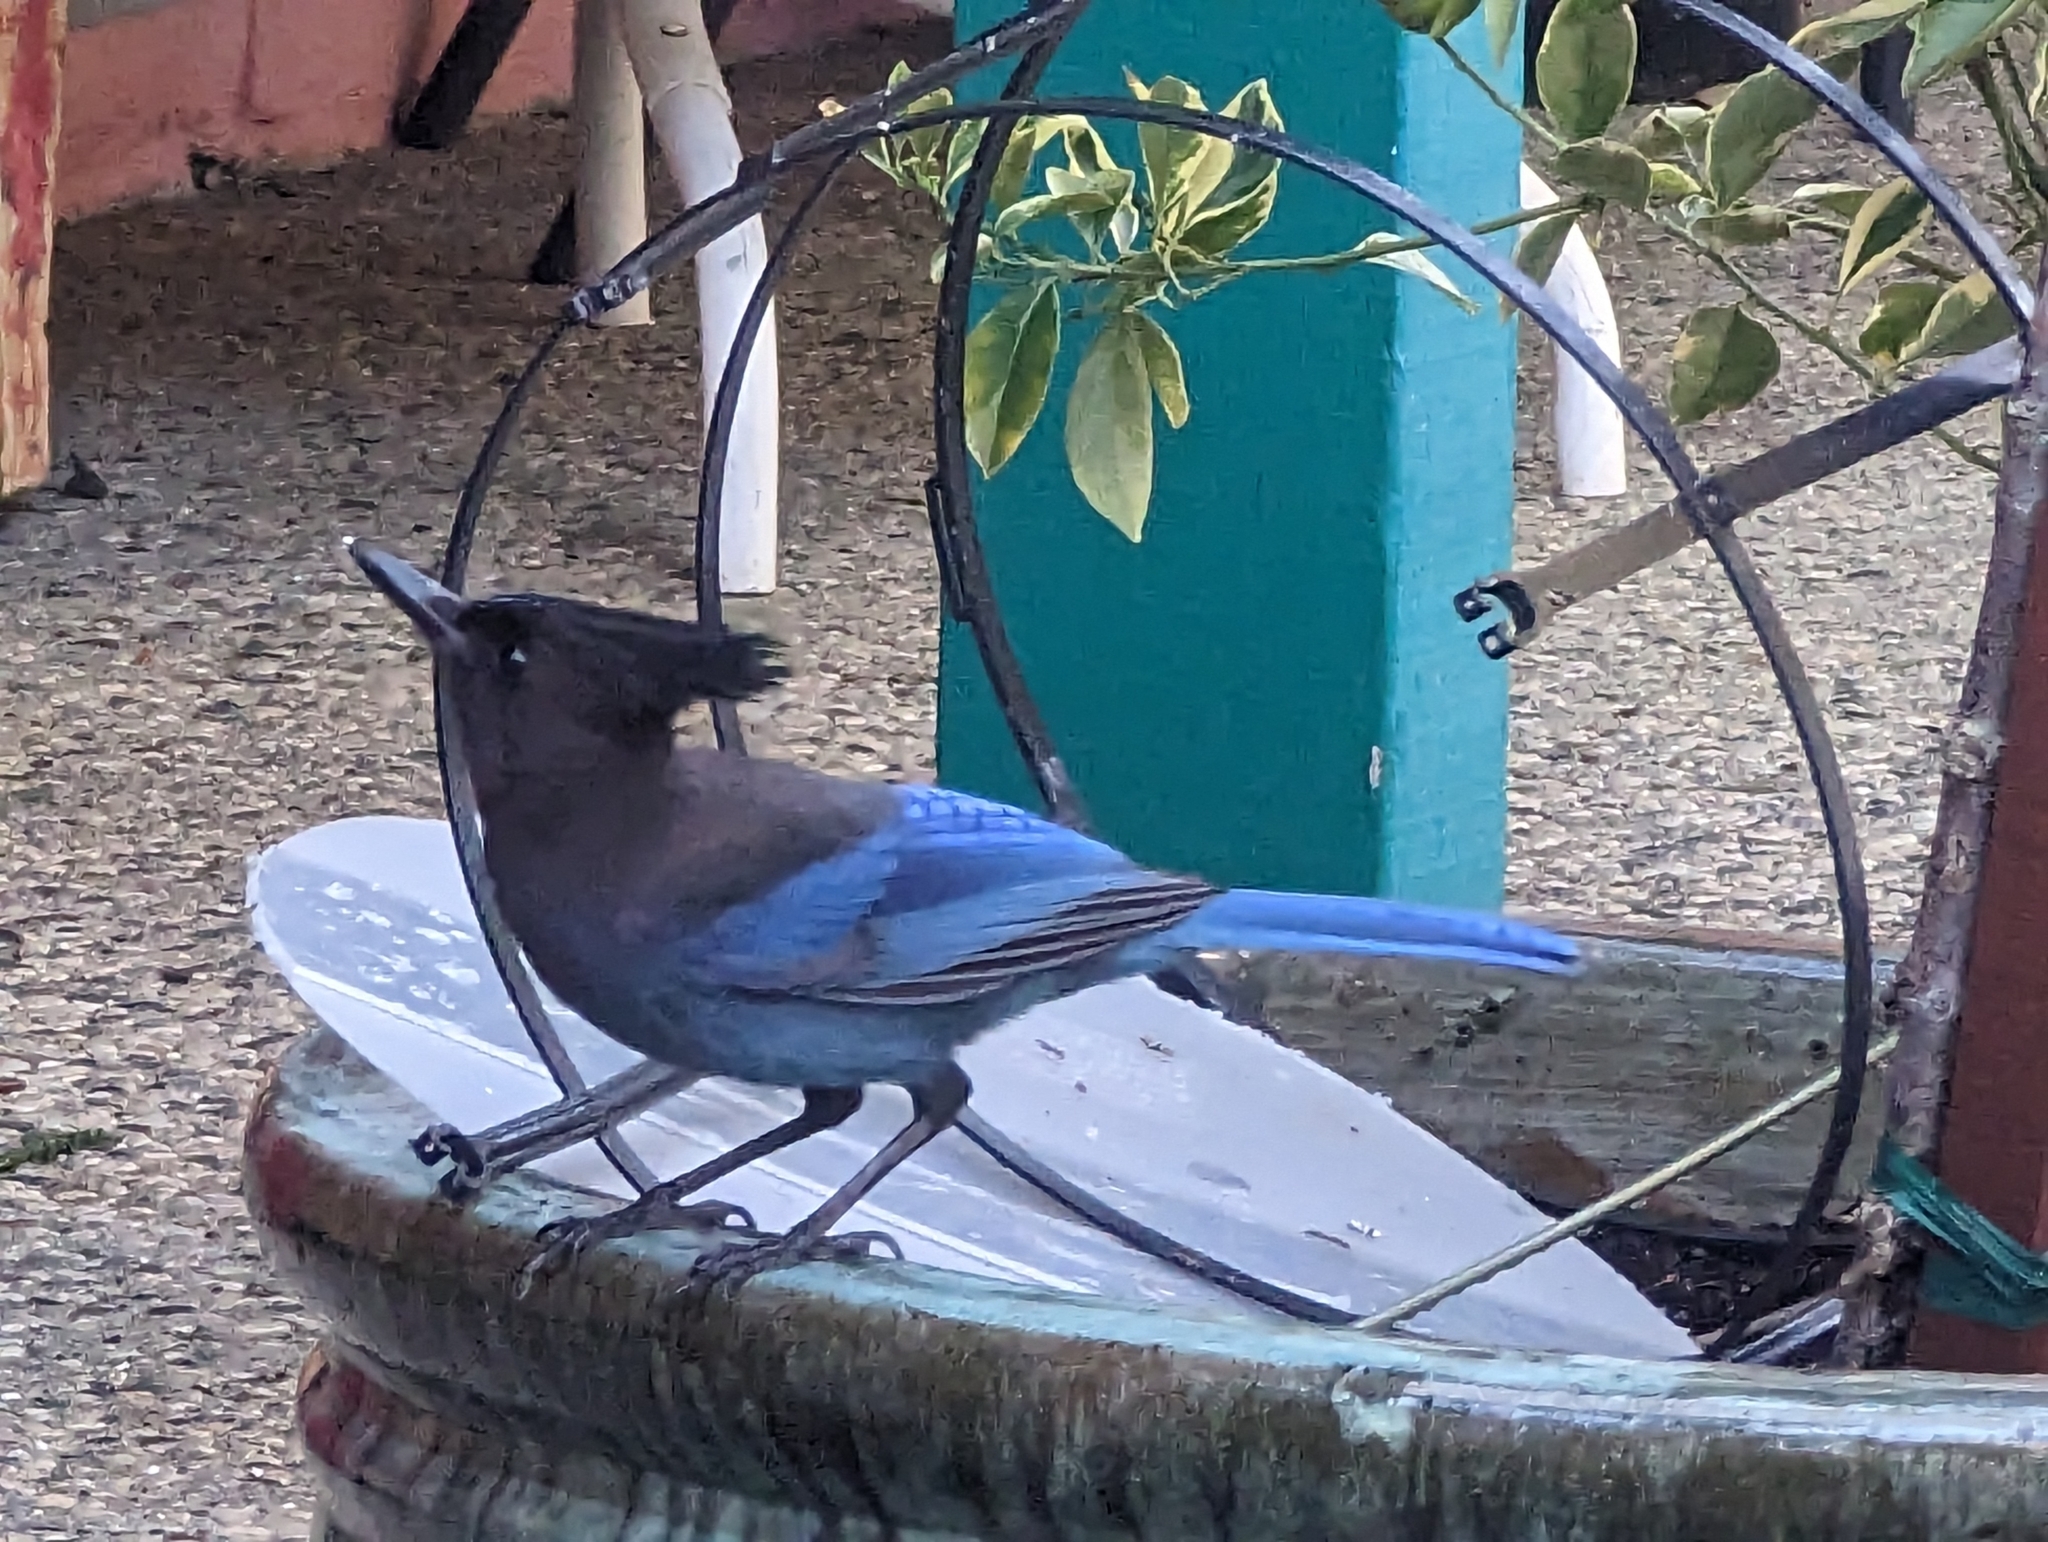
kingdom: Animalia
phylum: Chordata
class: Aves
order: Passeriformes
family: Corvidae
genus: Cyanocitta
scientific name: Cyanocitta stelleri
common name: Steller's jay
